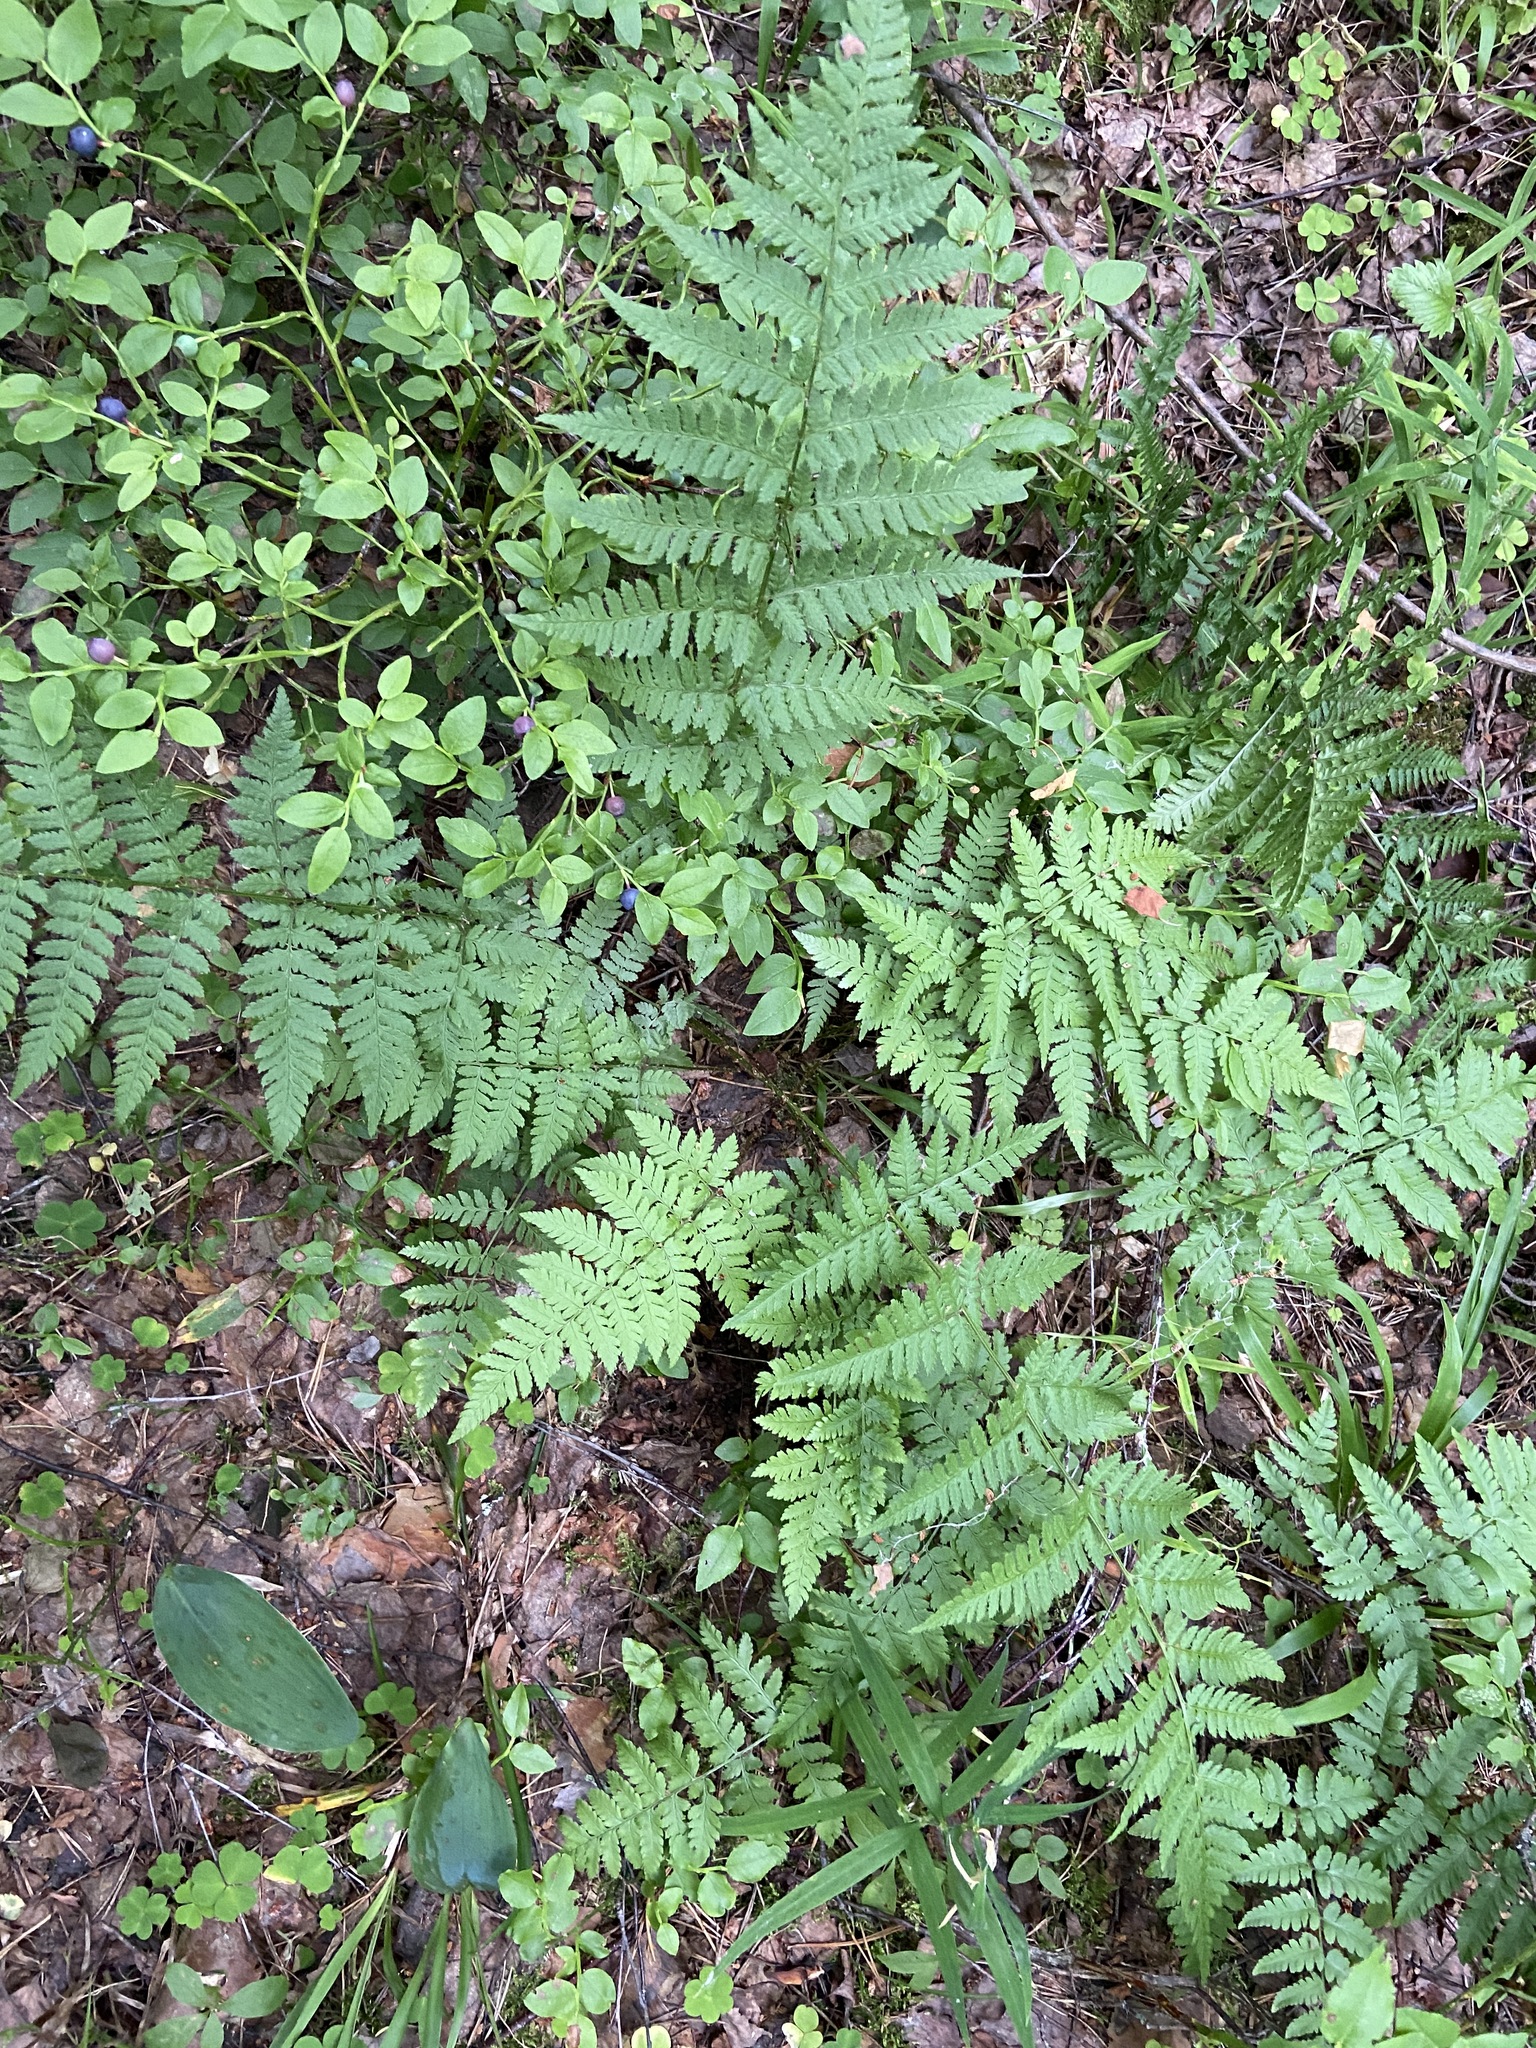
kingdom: Plantae
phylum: Tracheophyta
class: Polypodiopsida
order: Polypodiales
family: Dryopteridaceae
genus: Dryopteris
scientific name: Dryopteris carthusiana
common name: Narrow buckler-fern
